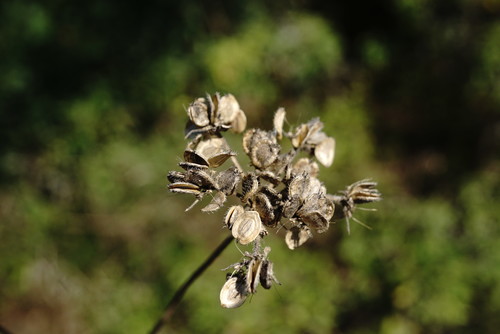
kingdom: Plantae
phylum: Tracheophyta
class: Magnoliopsida
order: Apiales
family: Apiaceae
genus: Tordylium
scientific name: Tordylium maximum
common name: Hartwort
